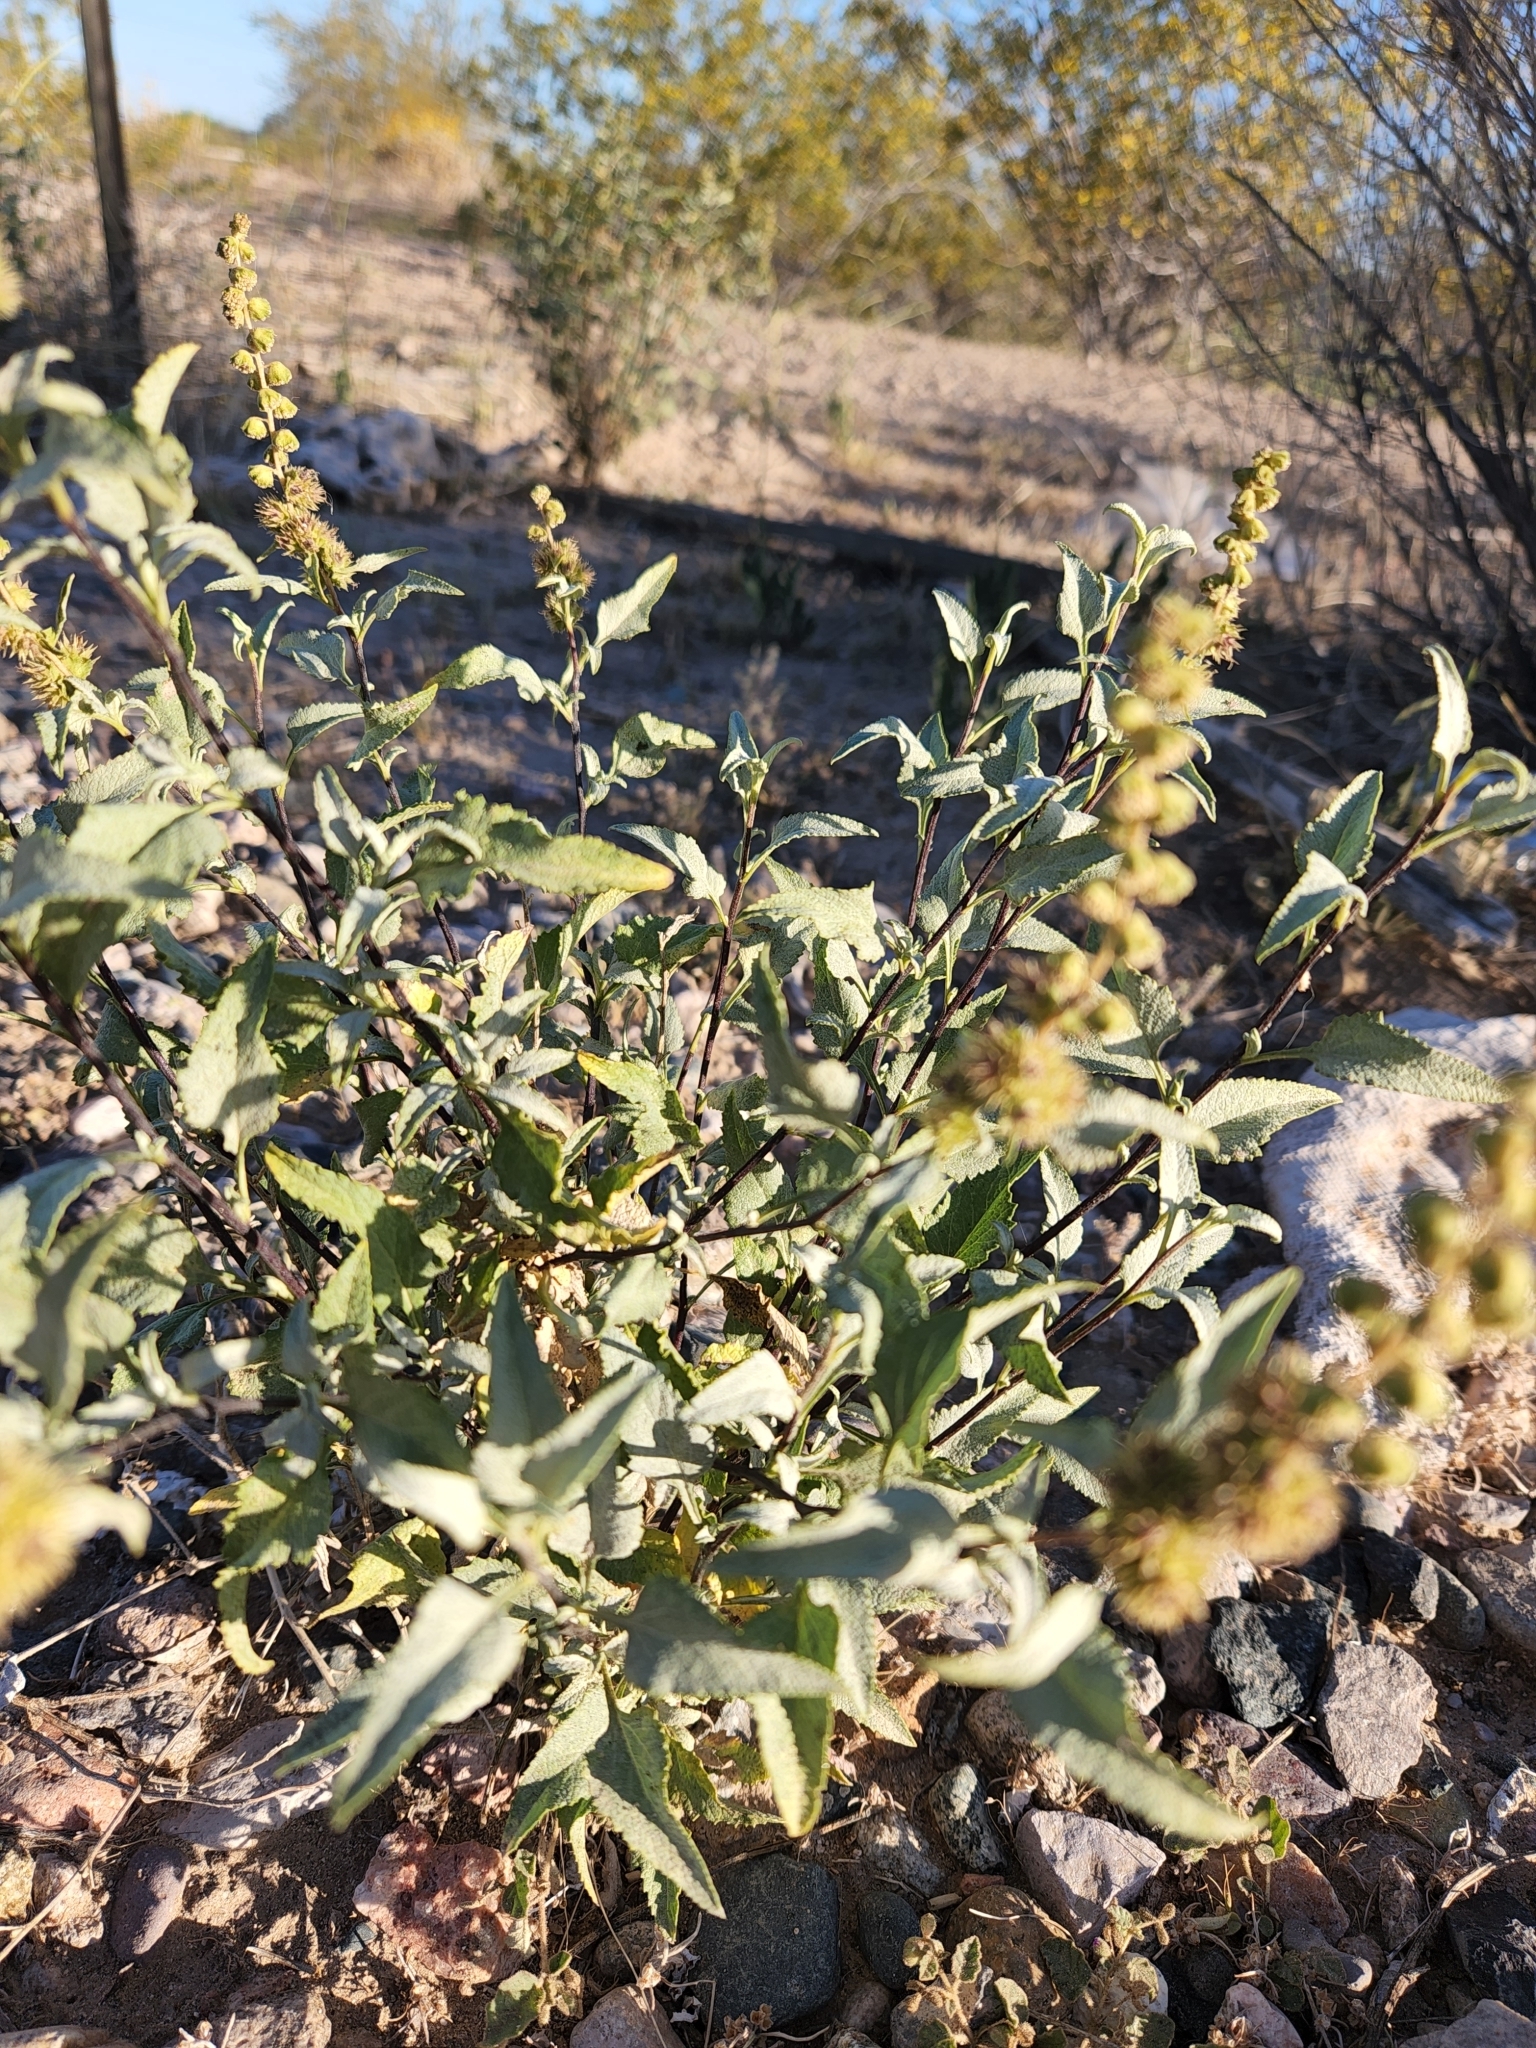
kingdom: Plantae
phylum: Tracheophyta
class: Magnoliopsida
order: Asterales
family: Asteraceae
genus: Ambrosia
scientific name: Ambrosia deltoidea
